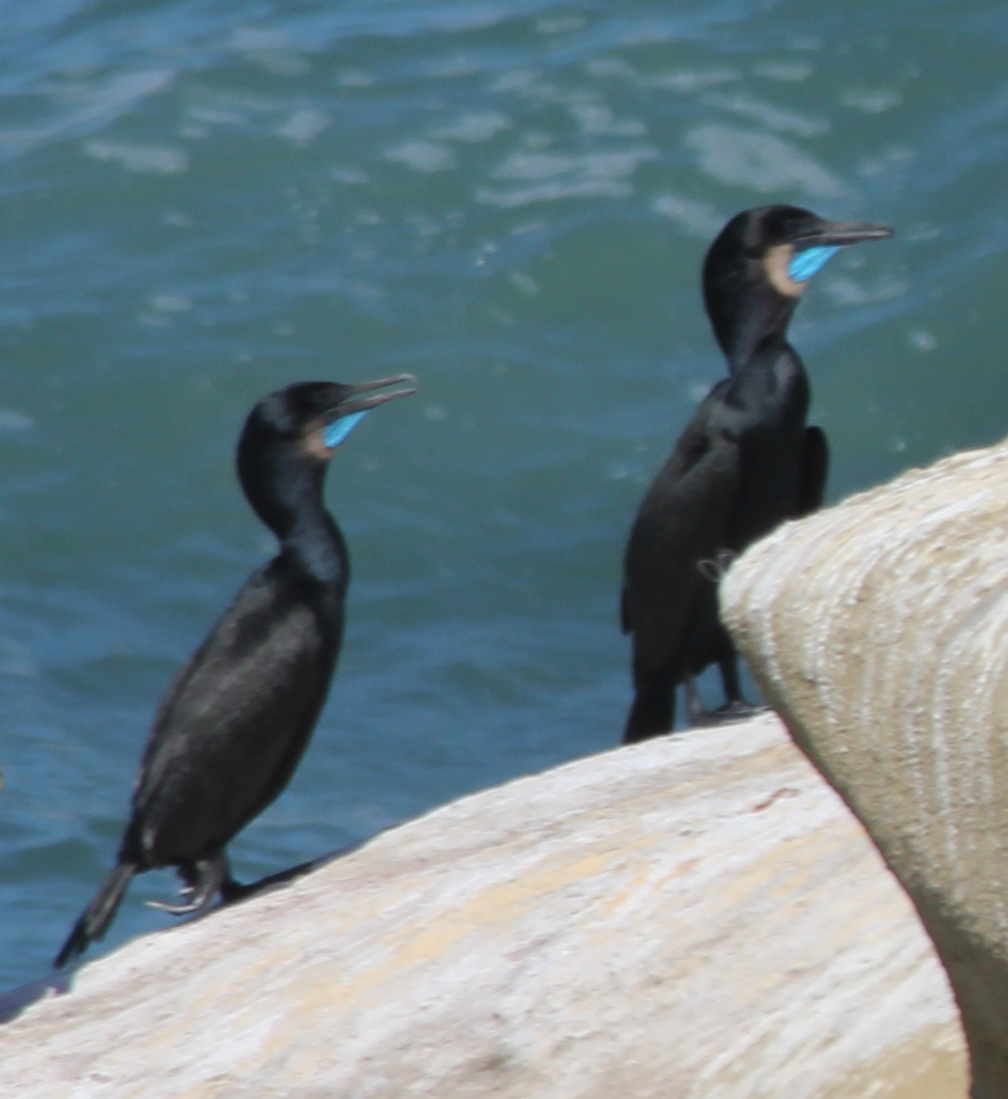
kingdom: Animalia
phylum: Chordata
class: Aves
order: Suliformes
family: Phalacrocoracidae
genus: Urile
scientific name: Urile penicillatus
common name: Brandt's cormorant
